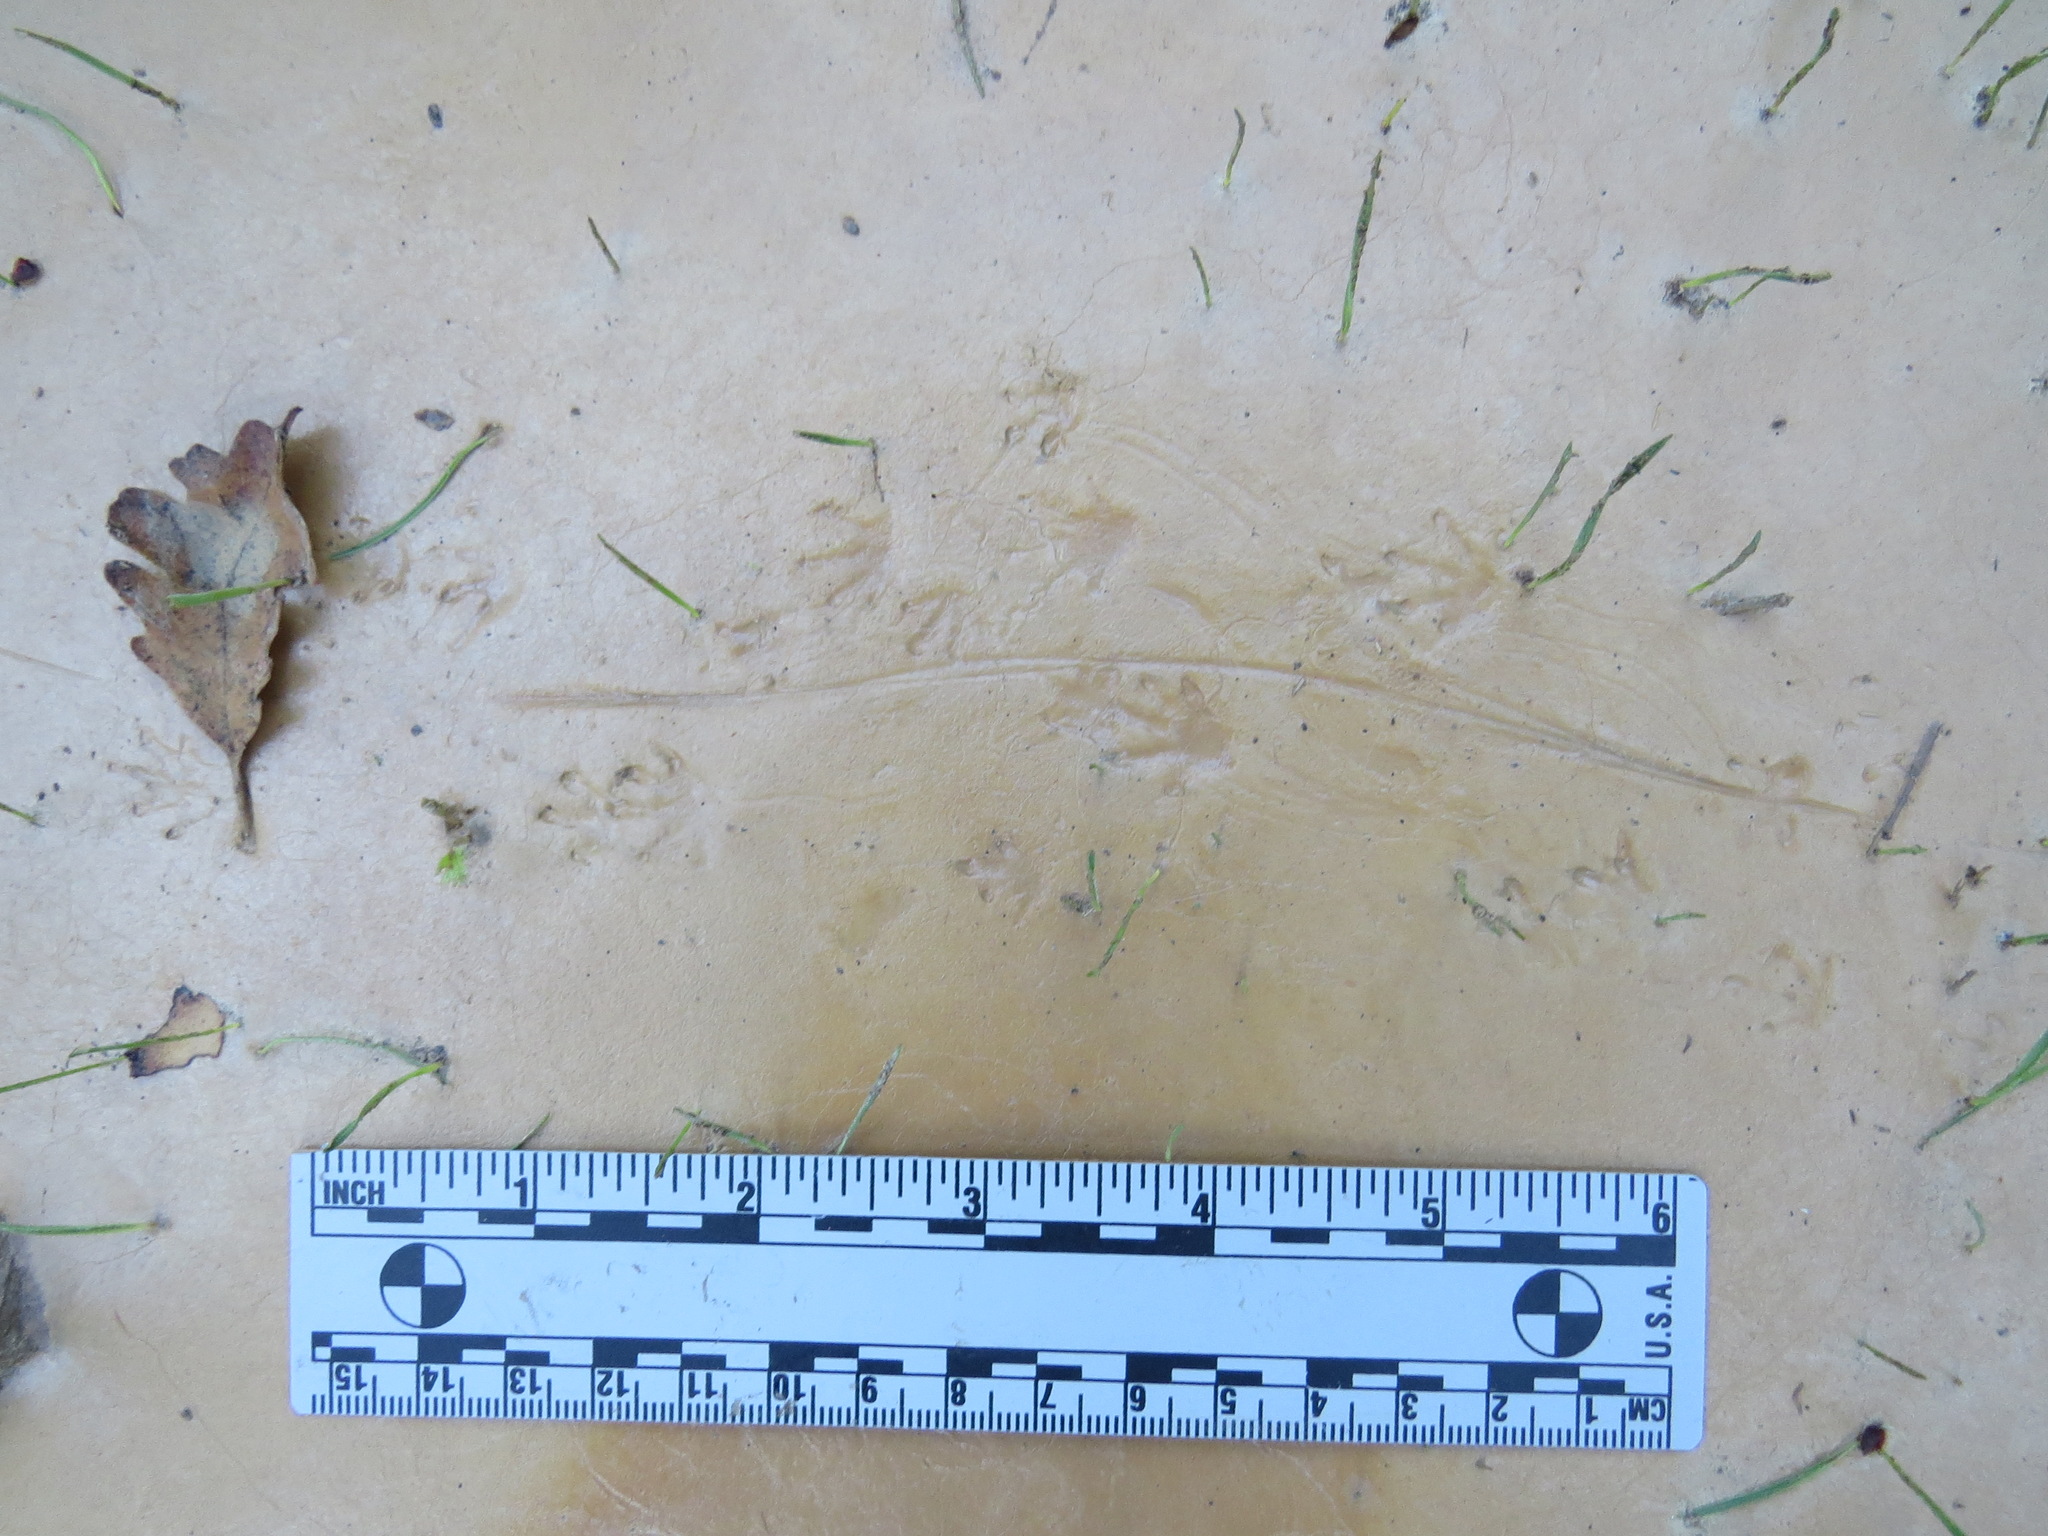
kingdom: Animalia
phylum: Chordata
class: Amphibia
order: Caudata
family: Salamandridae
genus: Taricha
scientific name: Taricha
